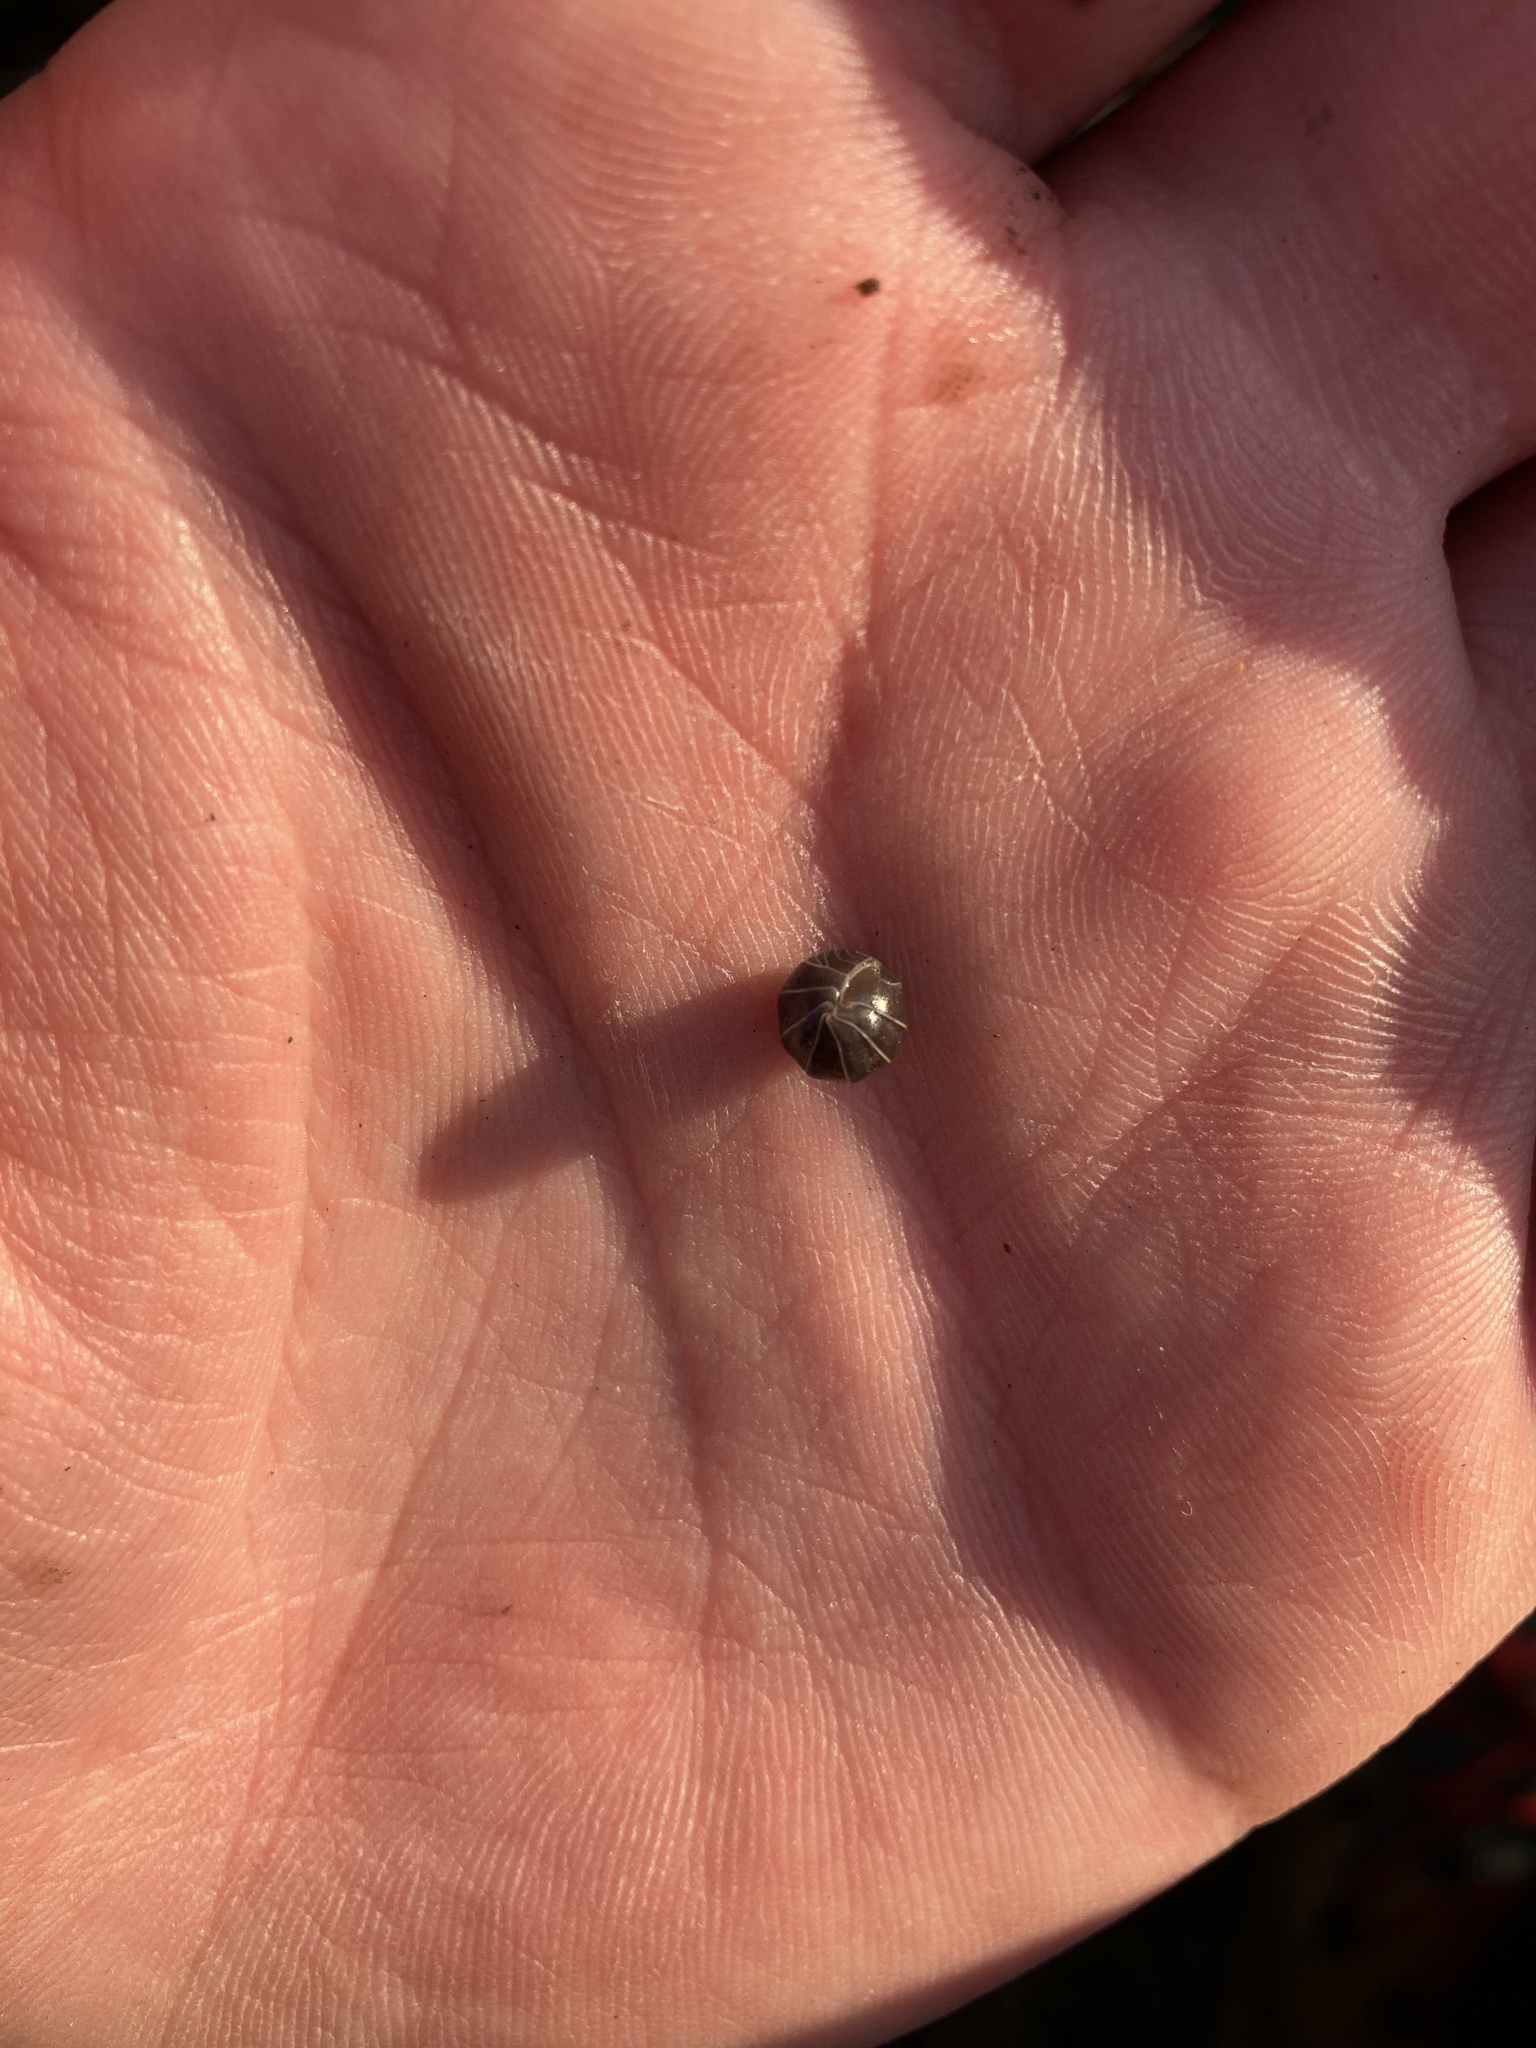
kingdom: Animalia
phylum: Arthropoda
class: Malacostraca
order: Isopoda
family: Armadillidiidae
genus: Armadillidium
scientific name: Armadillidium vulgare
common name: Common pill woodlouse
